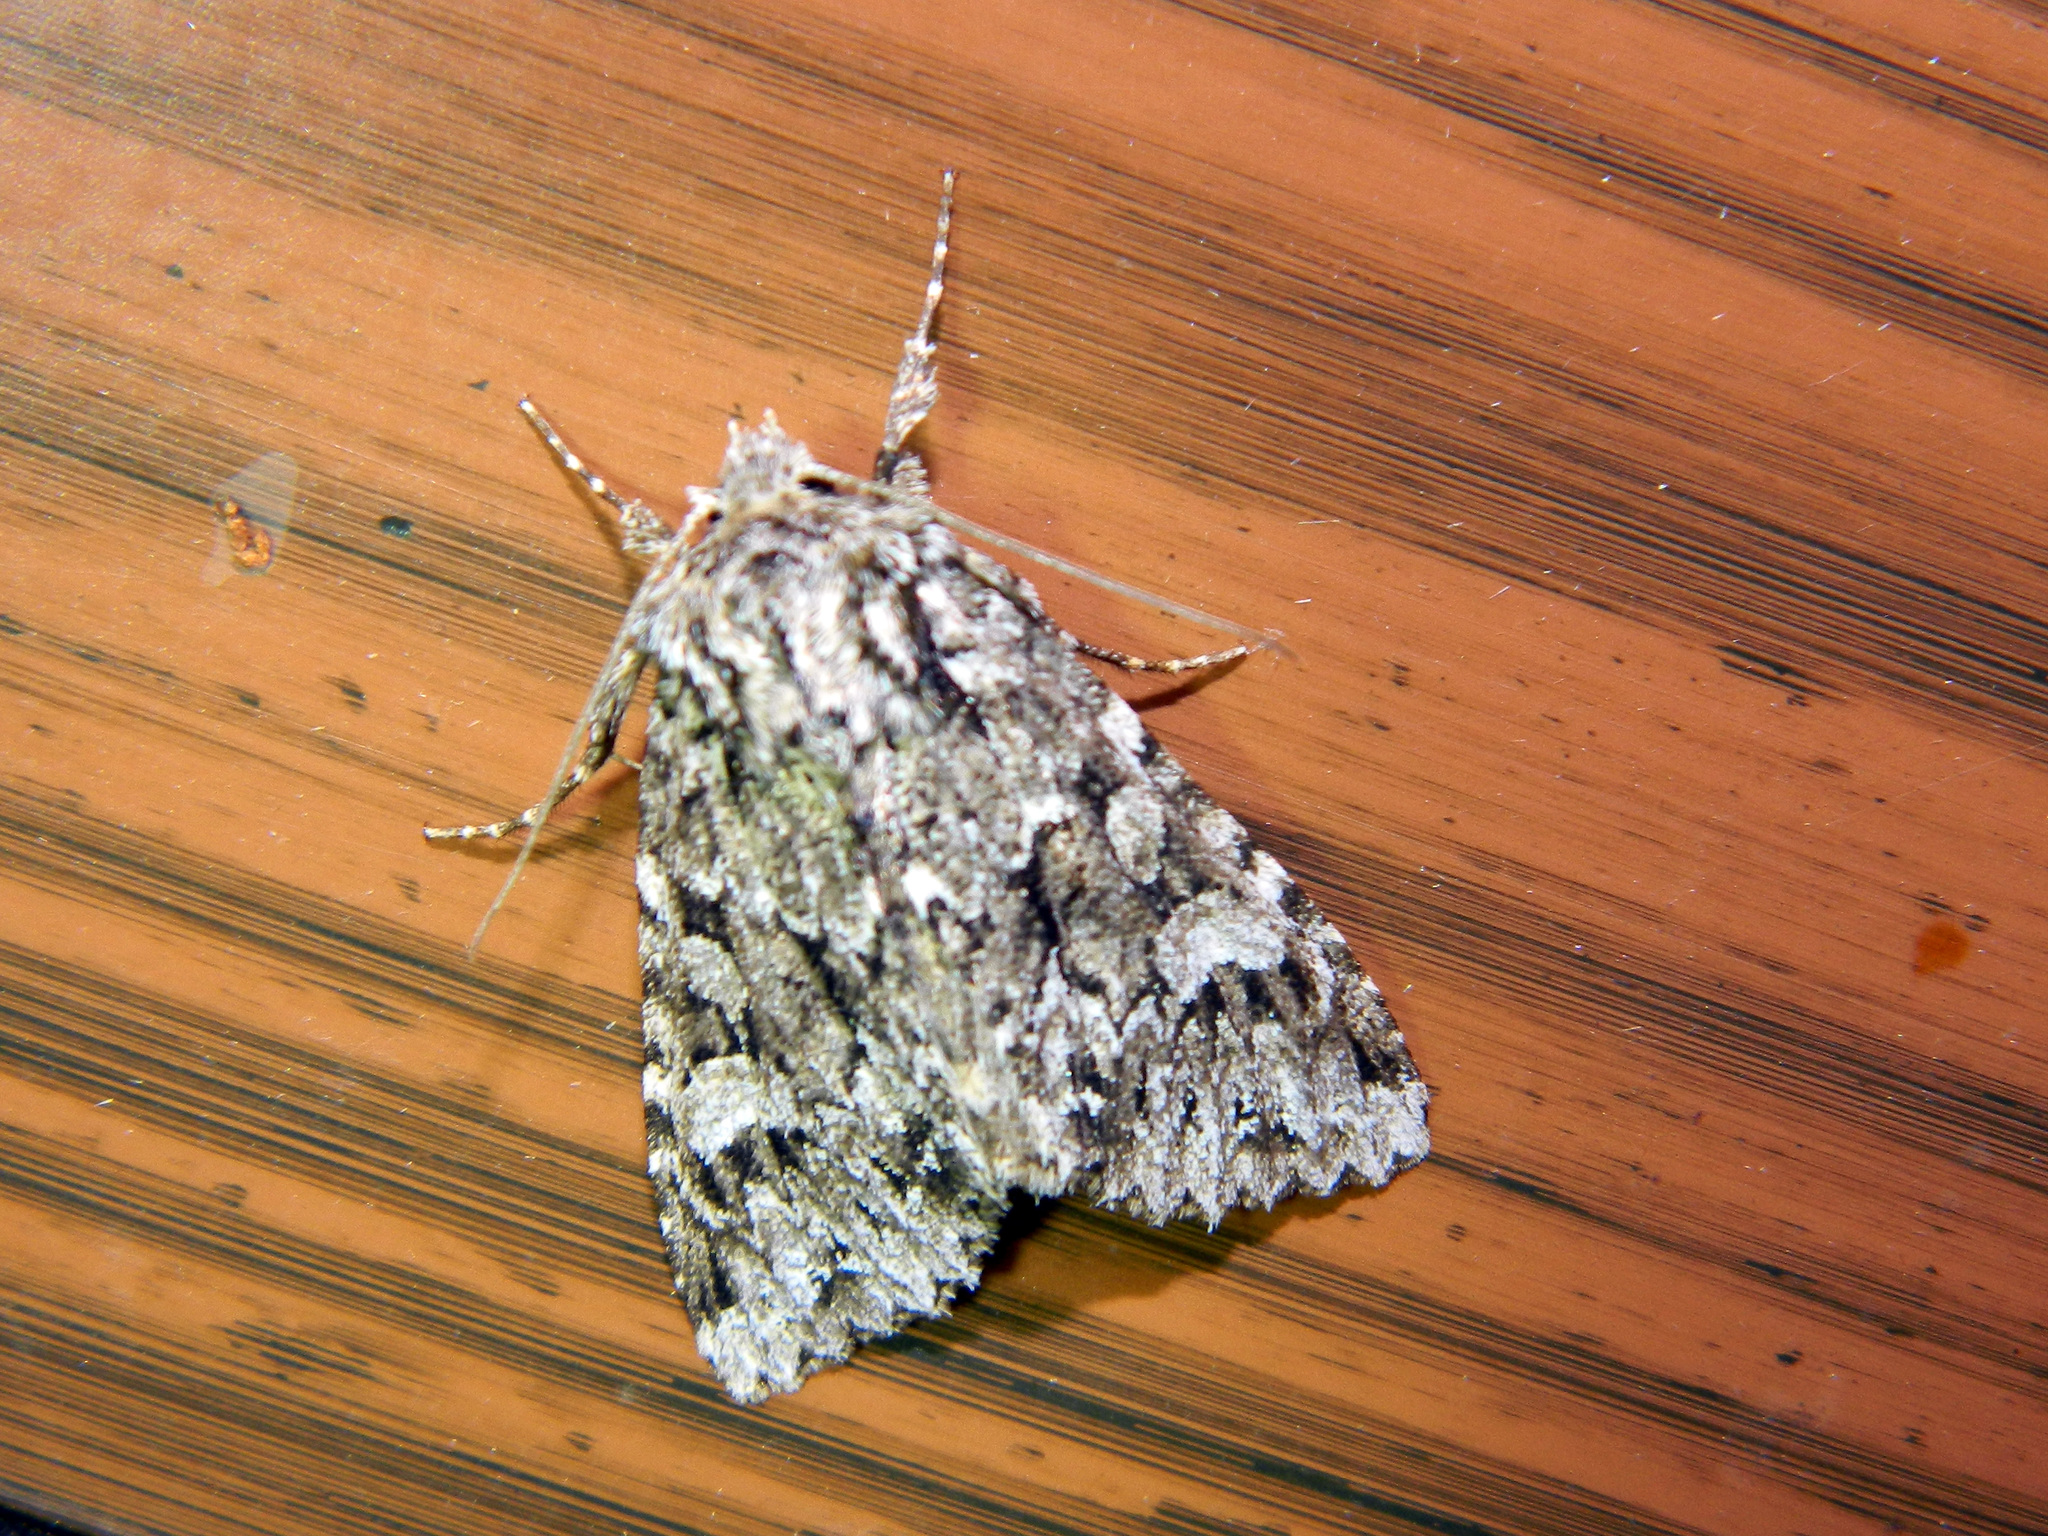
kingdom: Animalia
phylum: Arthropoda
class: Insecta
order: Lepidoptera
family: Noctuidae
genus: Platypolia
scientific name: Platypolia anceps
